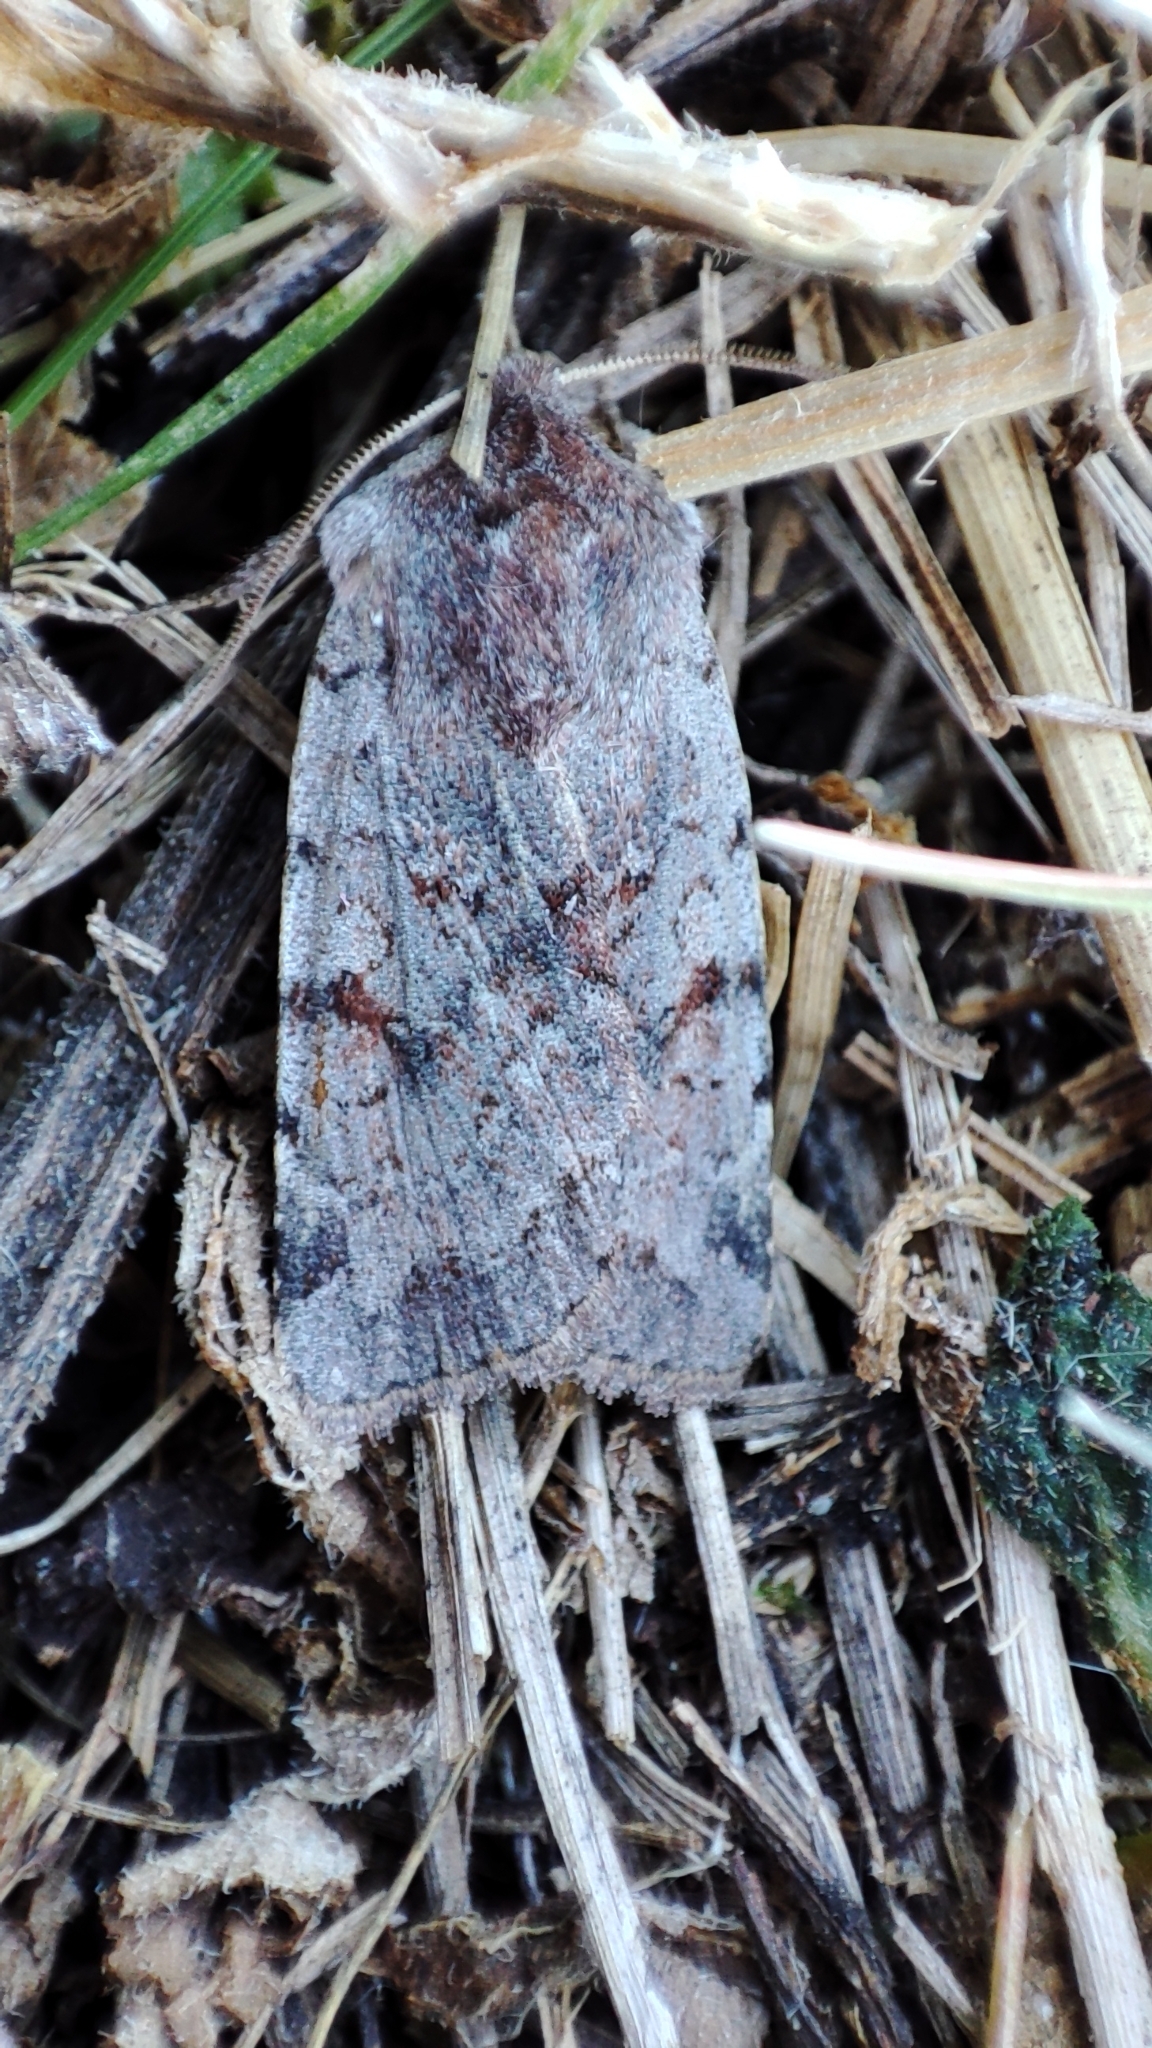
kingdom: Animalia
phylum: Arthropoda
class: Insecta
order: Lepidoptera
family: Noctuidae
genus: Cerastis
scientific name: Cerastis rubricosa
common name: Red chestnut
